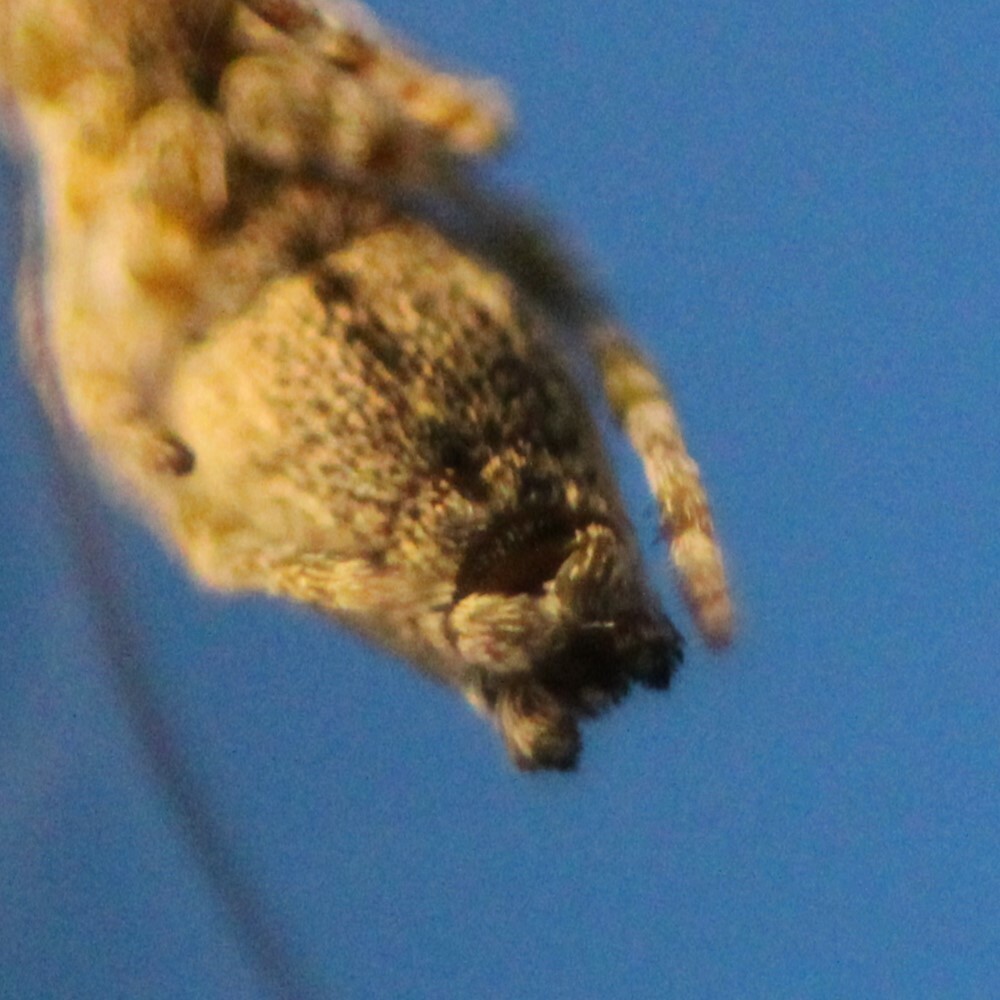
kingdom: Animalia
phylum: Arthropoda
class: Arachnida
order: Araneae
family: Uloboridae
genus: Uloborus
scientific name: Uloborus glomosus
